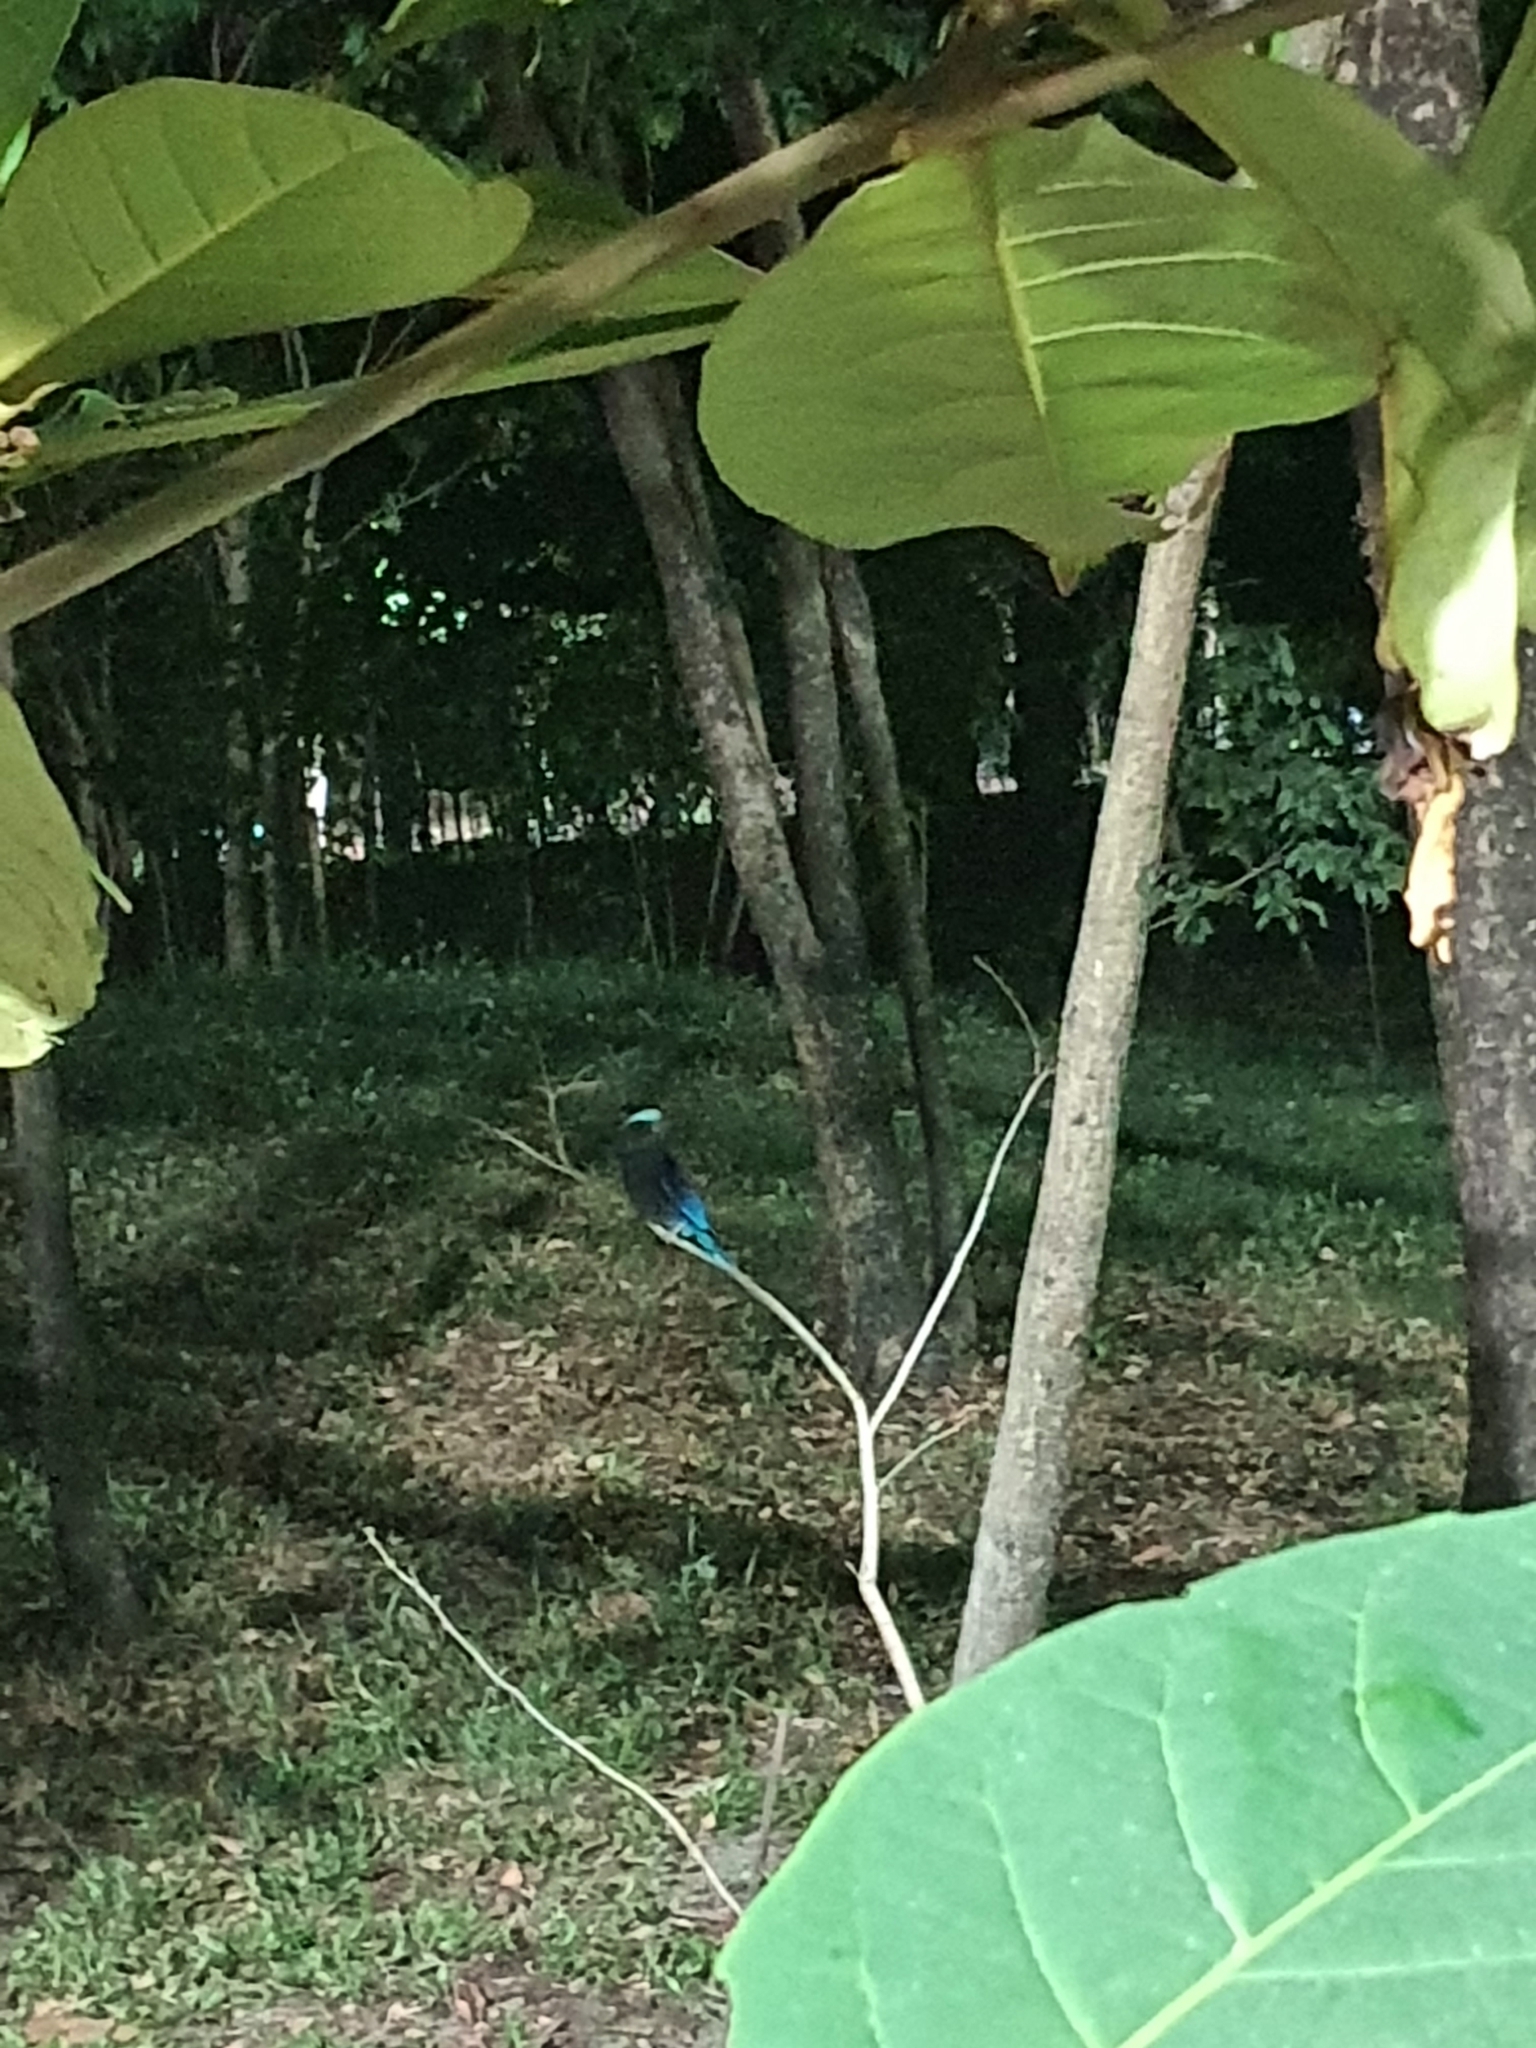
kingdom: Animalia
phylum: Chordata
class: Aves
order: Coraciiformes
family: Coraciidae
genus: Coracias
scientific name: Coracias affinis
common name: Indochinese roller
